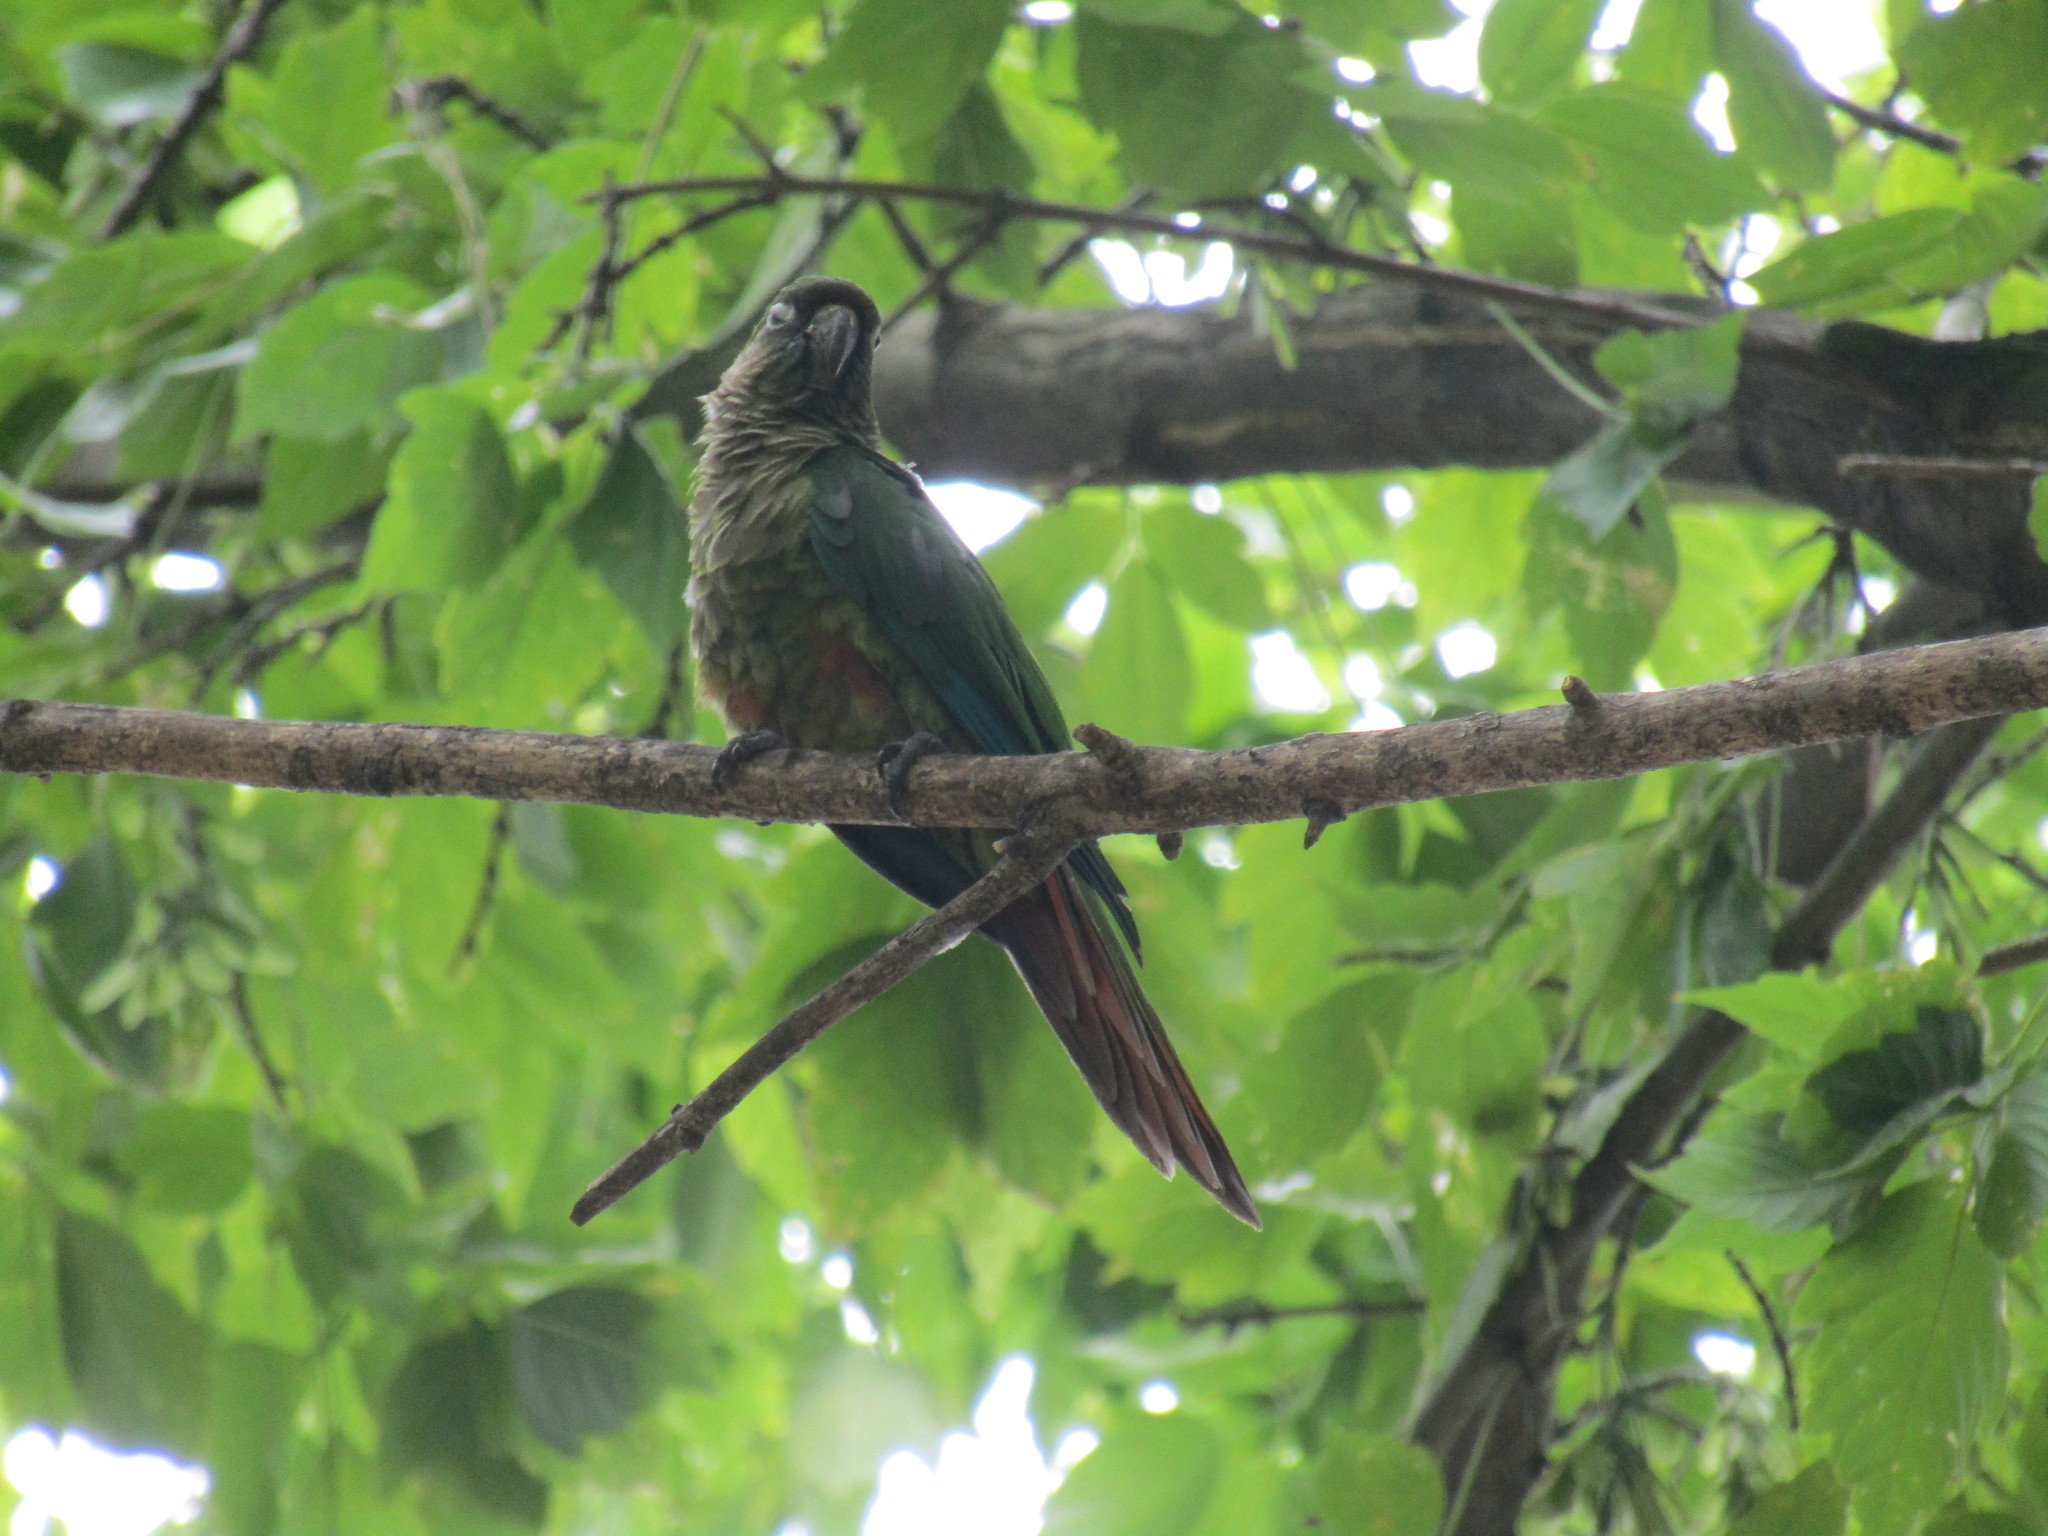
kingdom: Animalia
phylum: Chordata
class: Aves
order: Psittaciformes
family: Psittacidae
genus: Pyrrhura
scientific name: Pyrrhura frontalis
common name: Maroon-bellied parakeet
